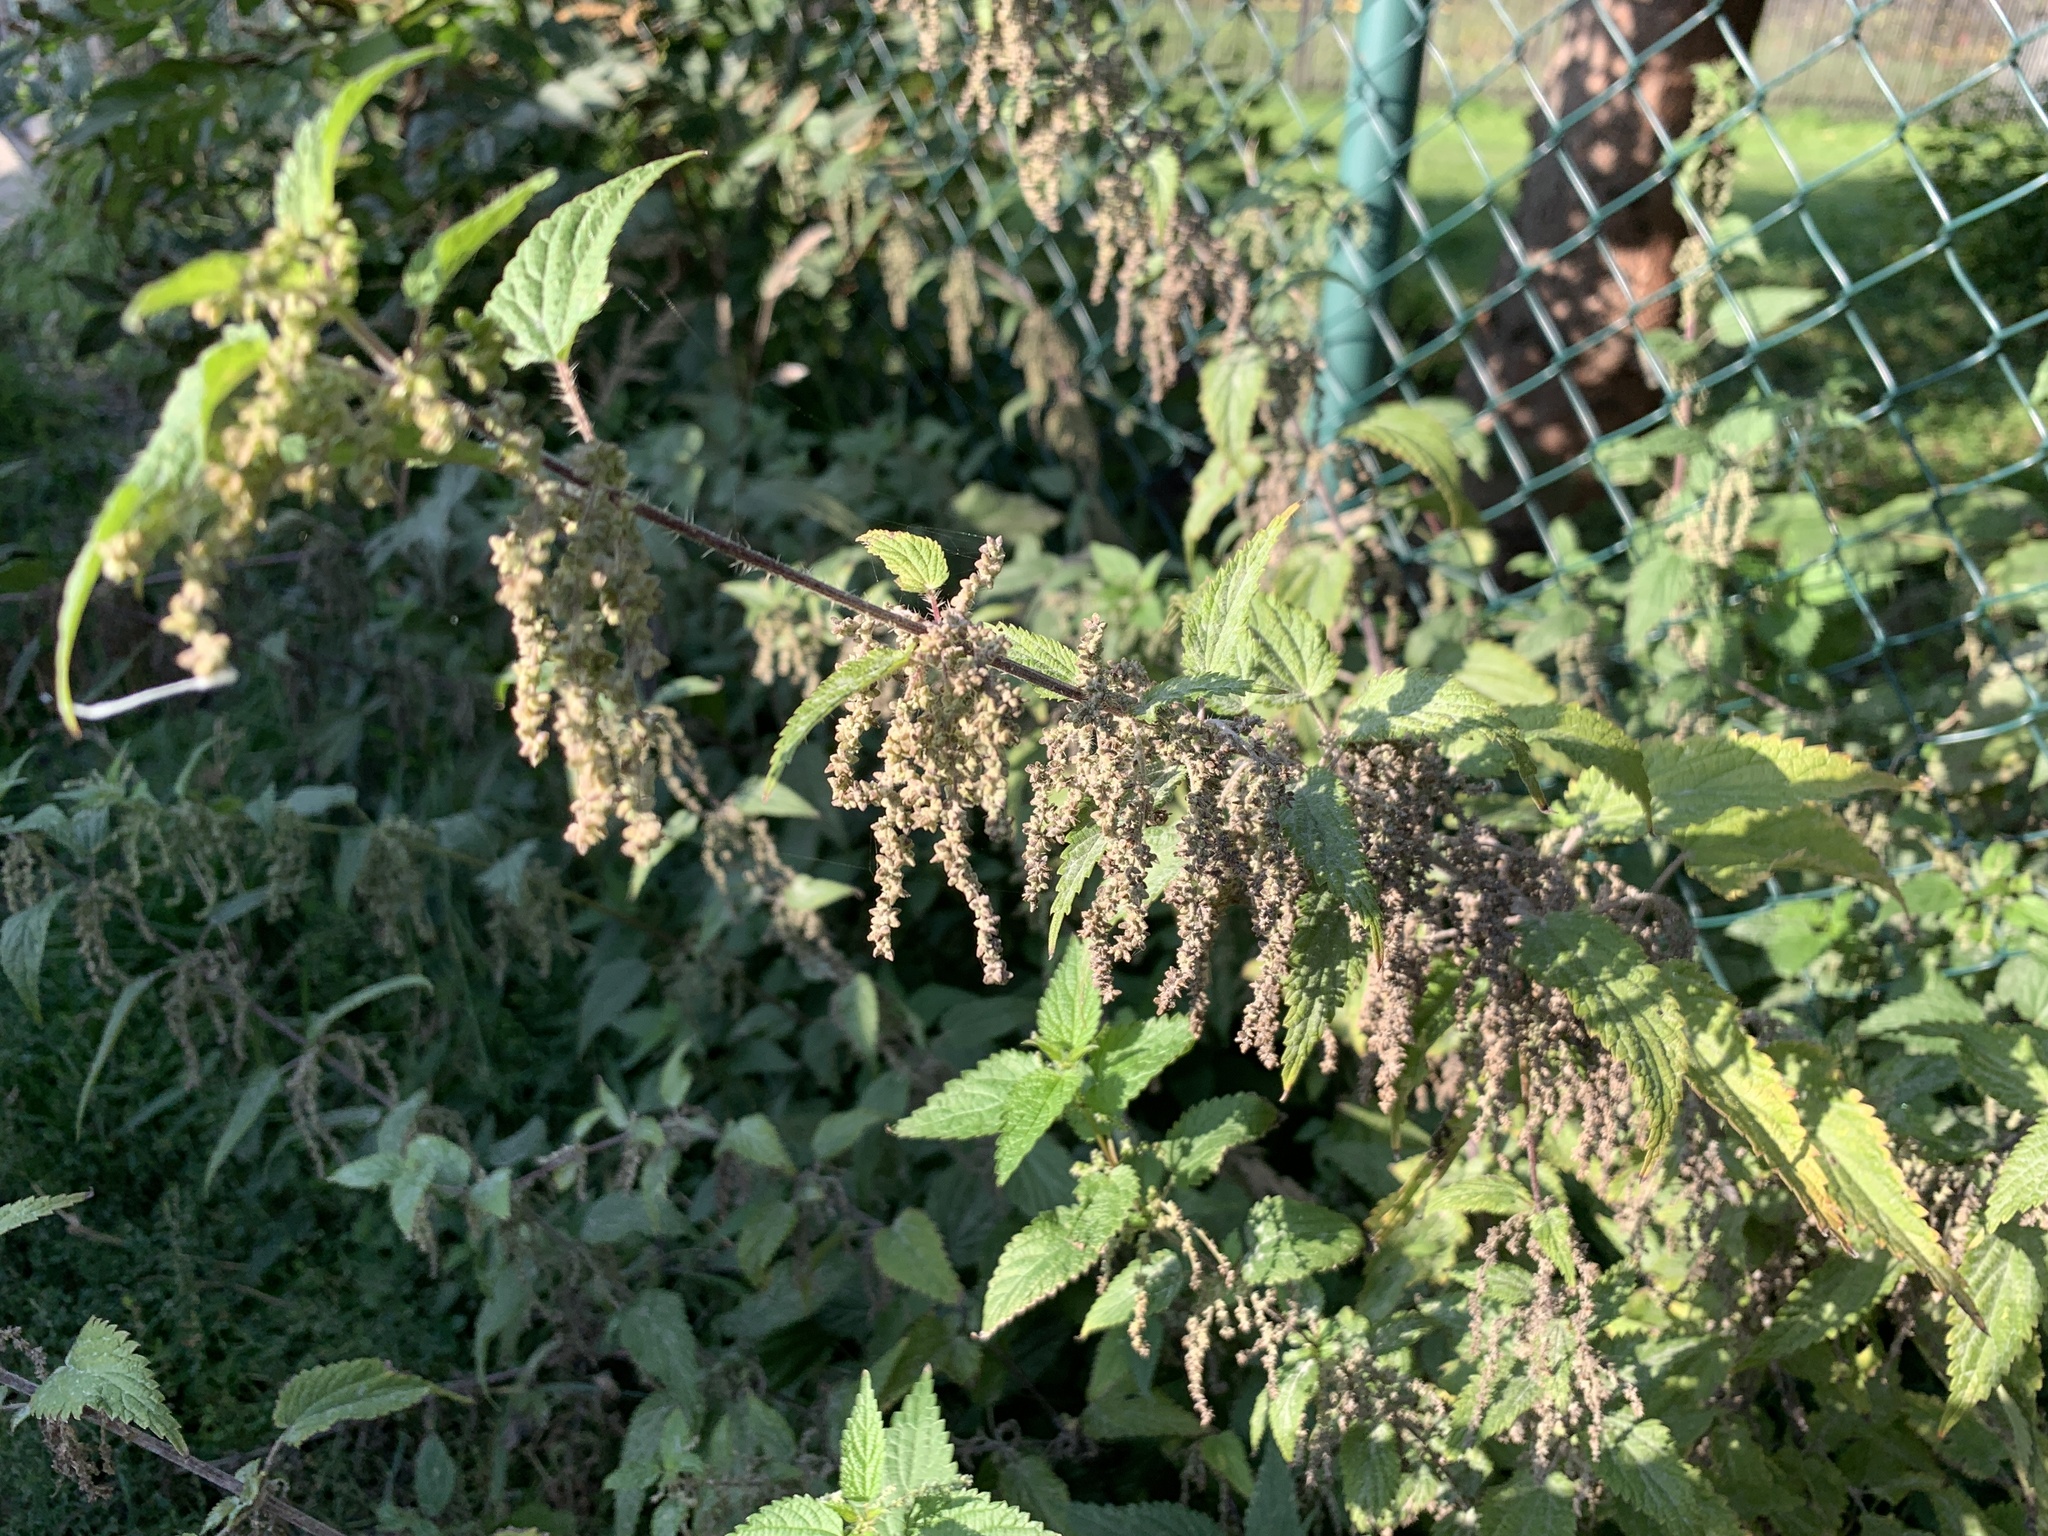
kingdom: Plantae
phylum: Tracheophyta
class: Magnoliopsida
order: Rosales
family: Urticaceae
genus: Urtica
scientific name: Urtica dioica
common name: Common nettle
